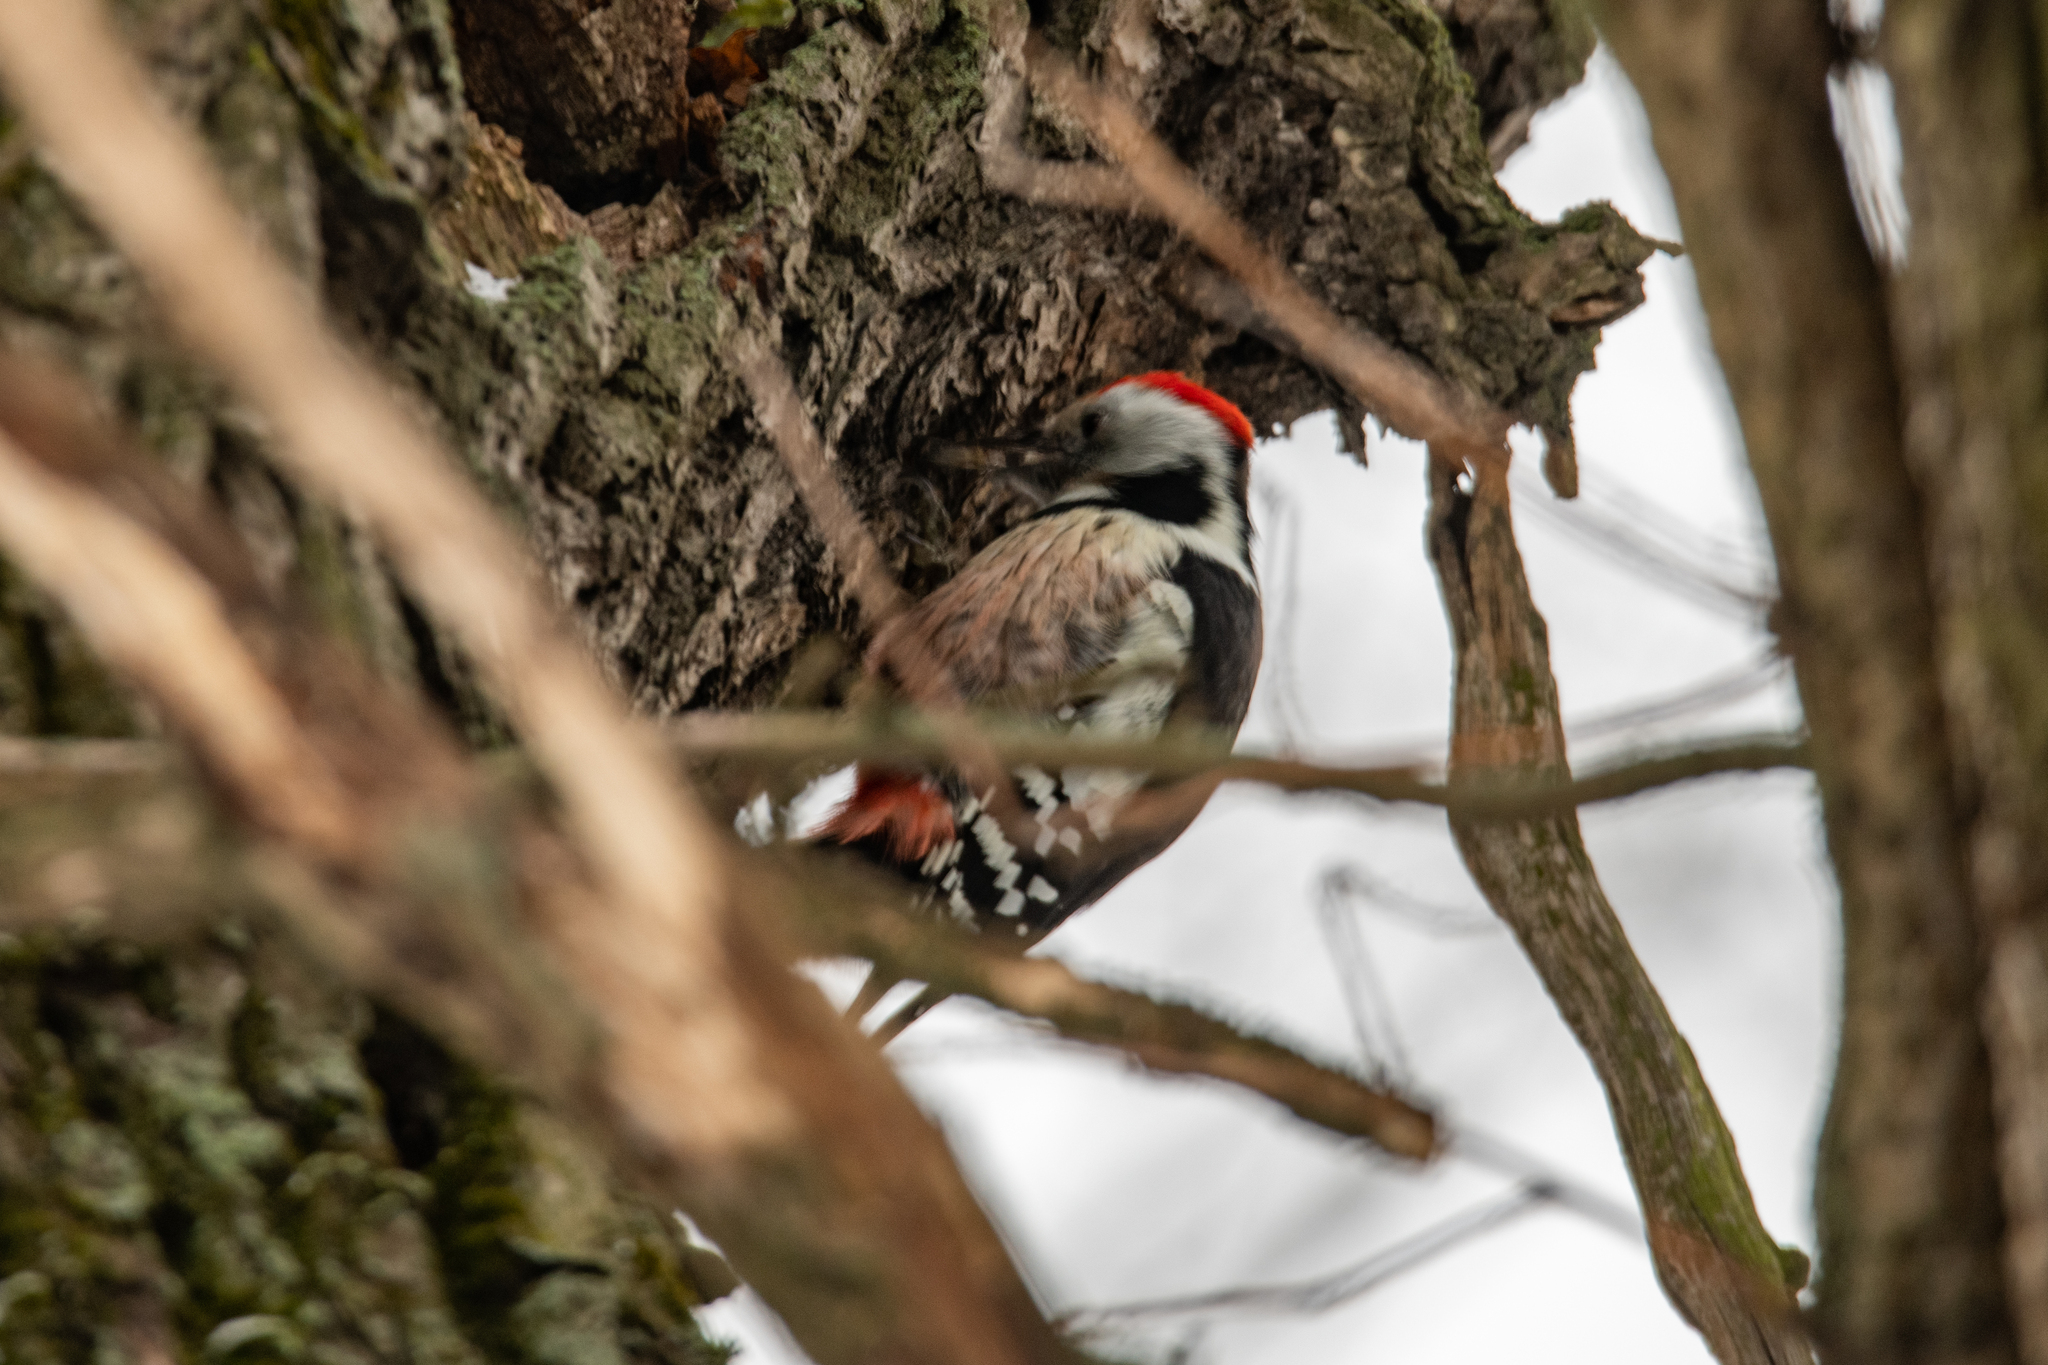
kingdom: Animalia
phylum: Chordata
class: Aves
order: Piciformes
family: Picidae
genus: Dendrocoptes
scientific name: Dendrocoptes medius
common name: Middle spotted woodpecker
